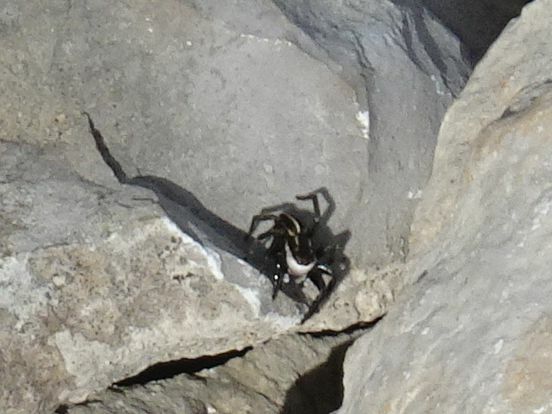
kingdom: Animalia
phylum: Arthropoda
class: Arachnida
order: Araneae
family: Salticidae
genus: Phlegra
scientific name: Phlegra bresnieri
